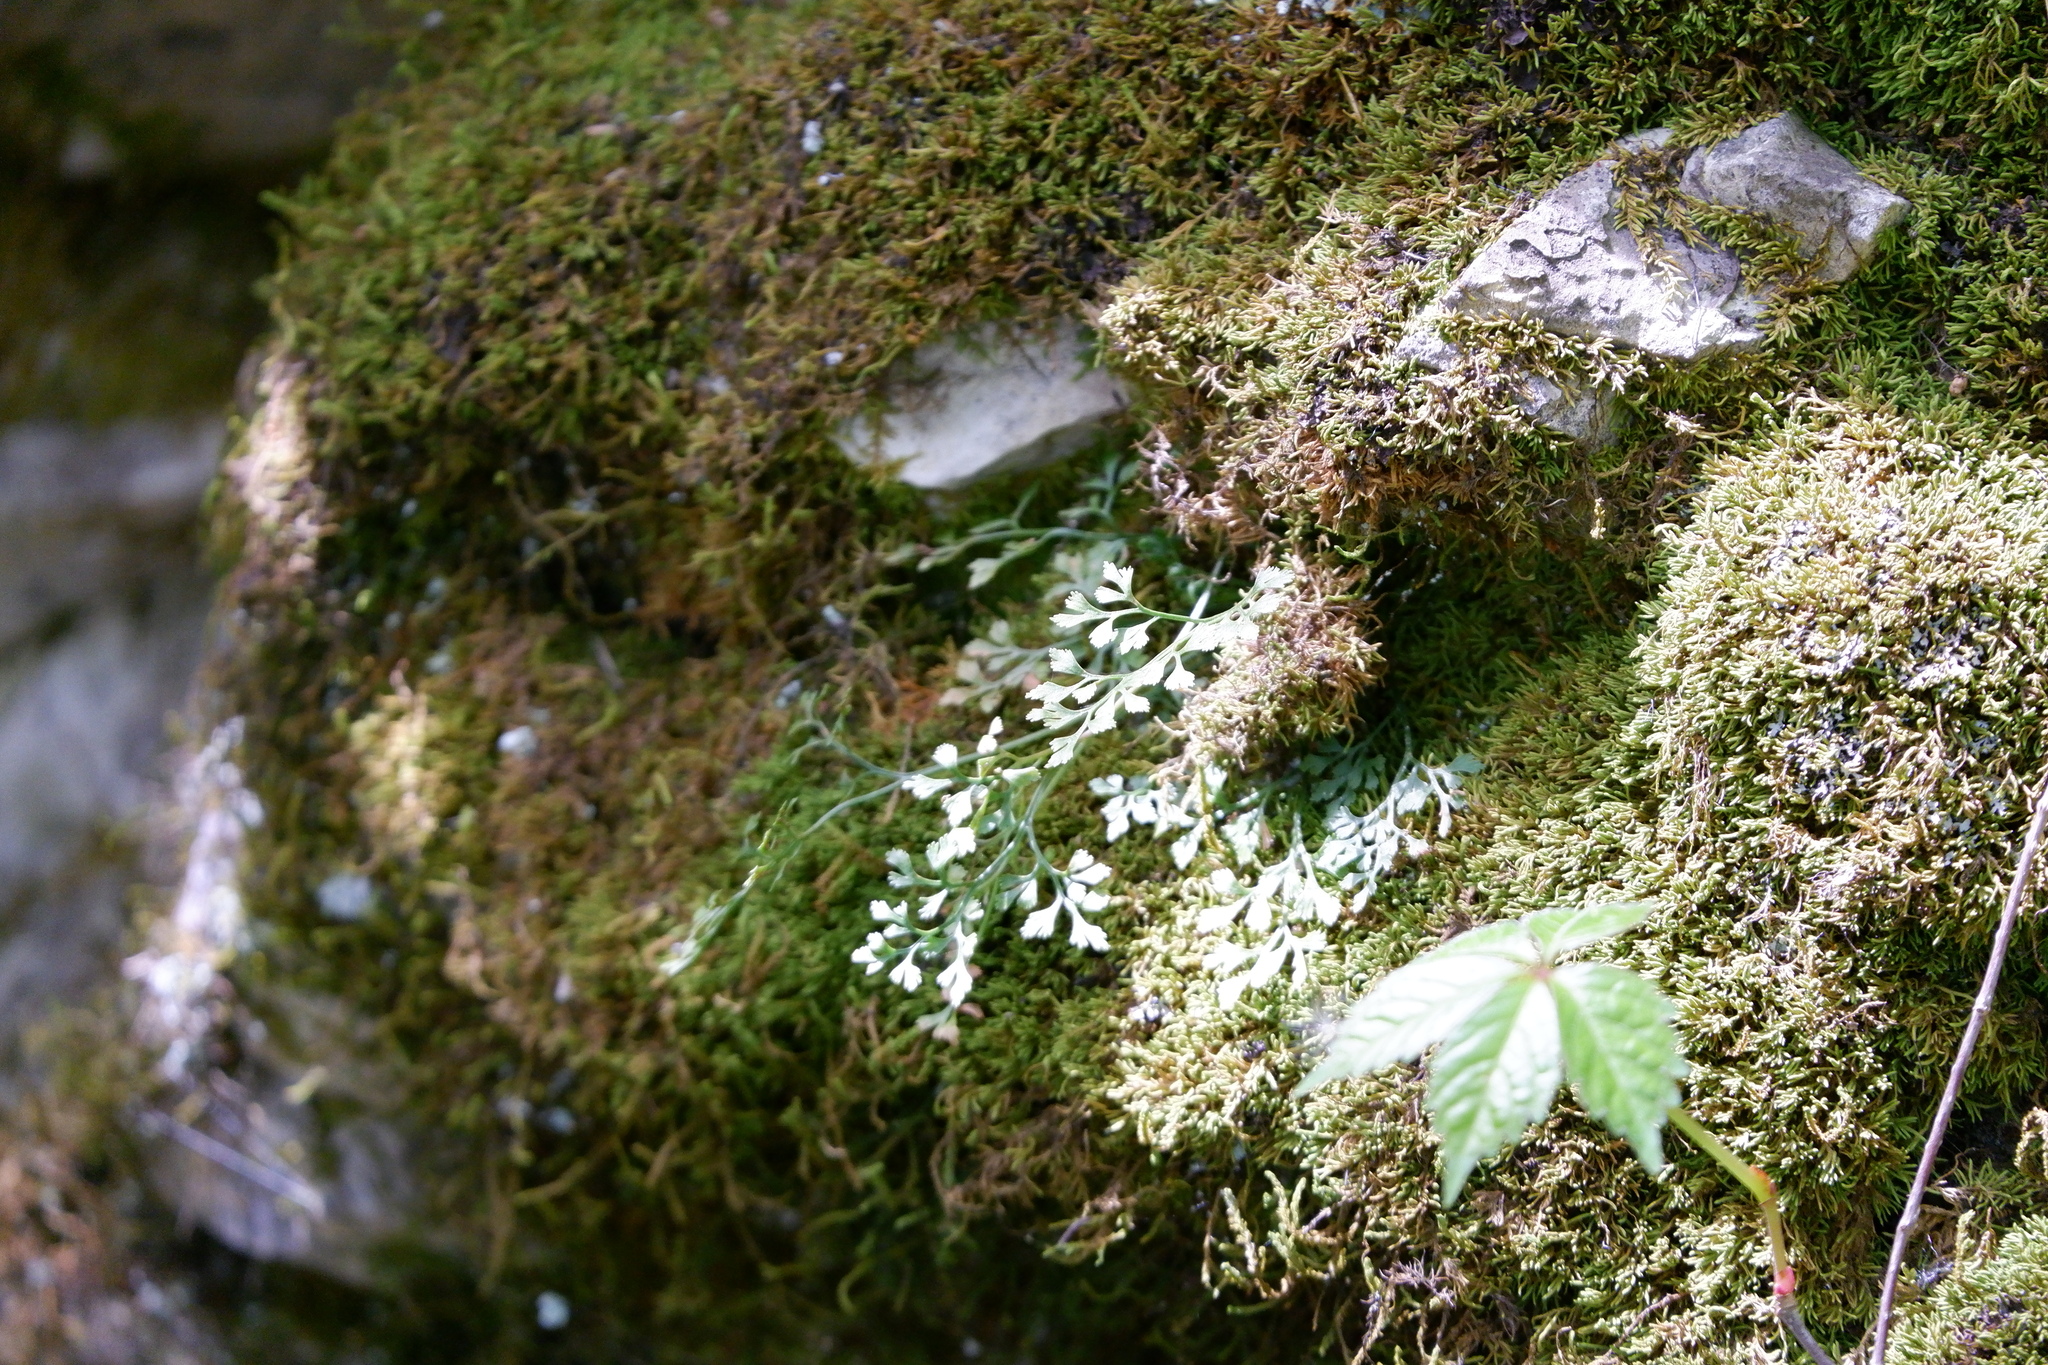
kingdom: Plantae
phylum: Tracheophyta
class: Polypodiopsida
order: Polypodiales
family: Aspleniaceae
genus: Asplenium
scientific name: Asplenium ruta-muraria
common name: Wall-rue
